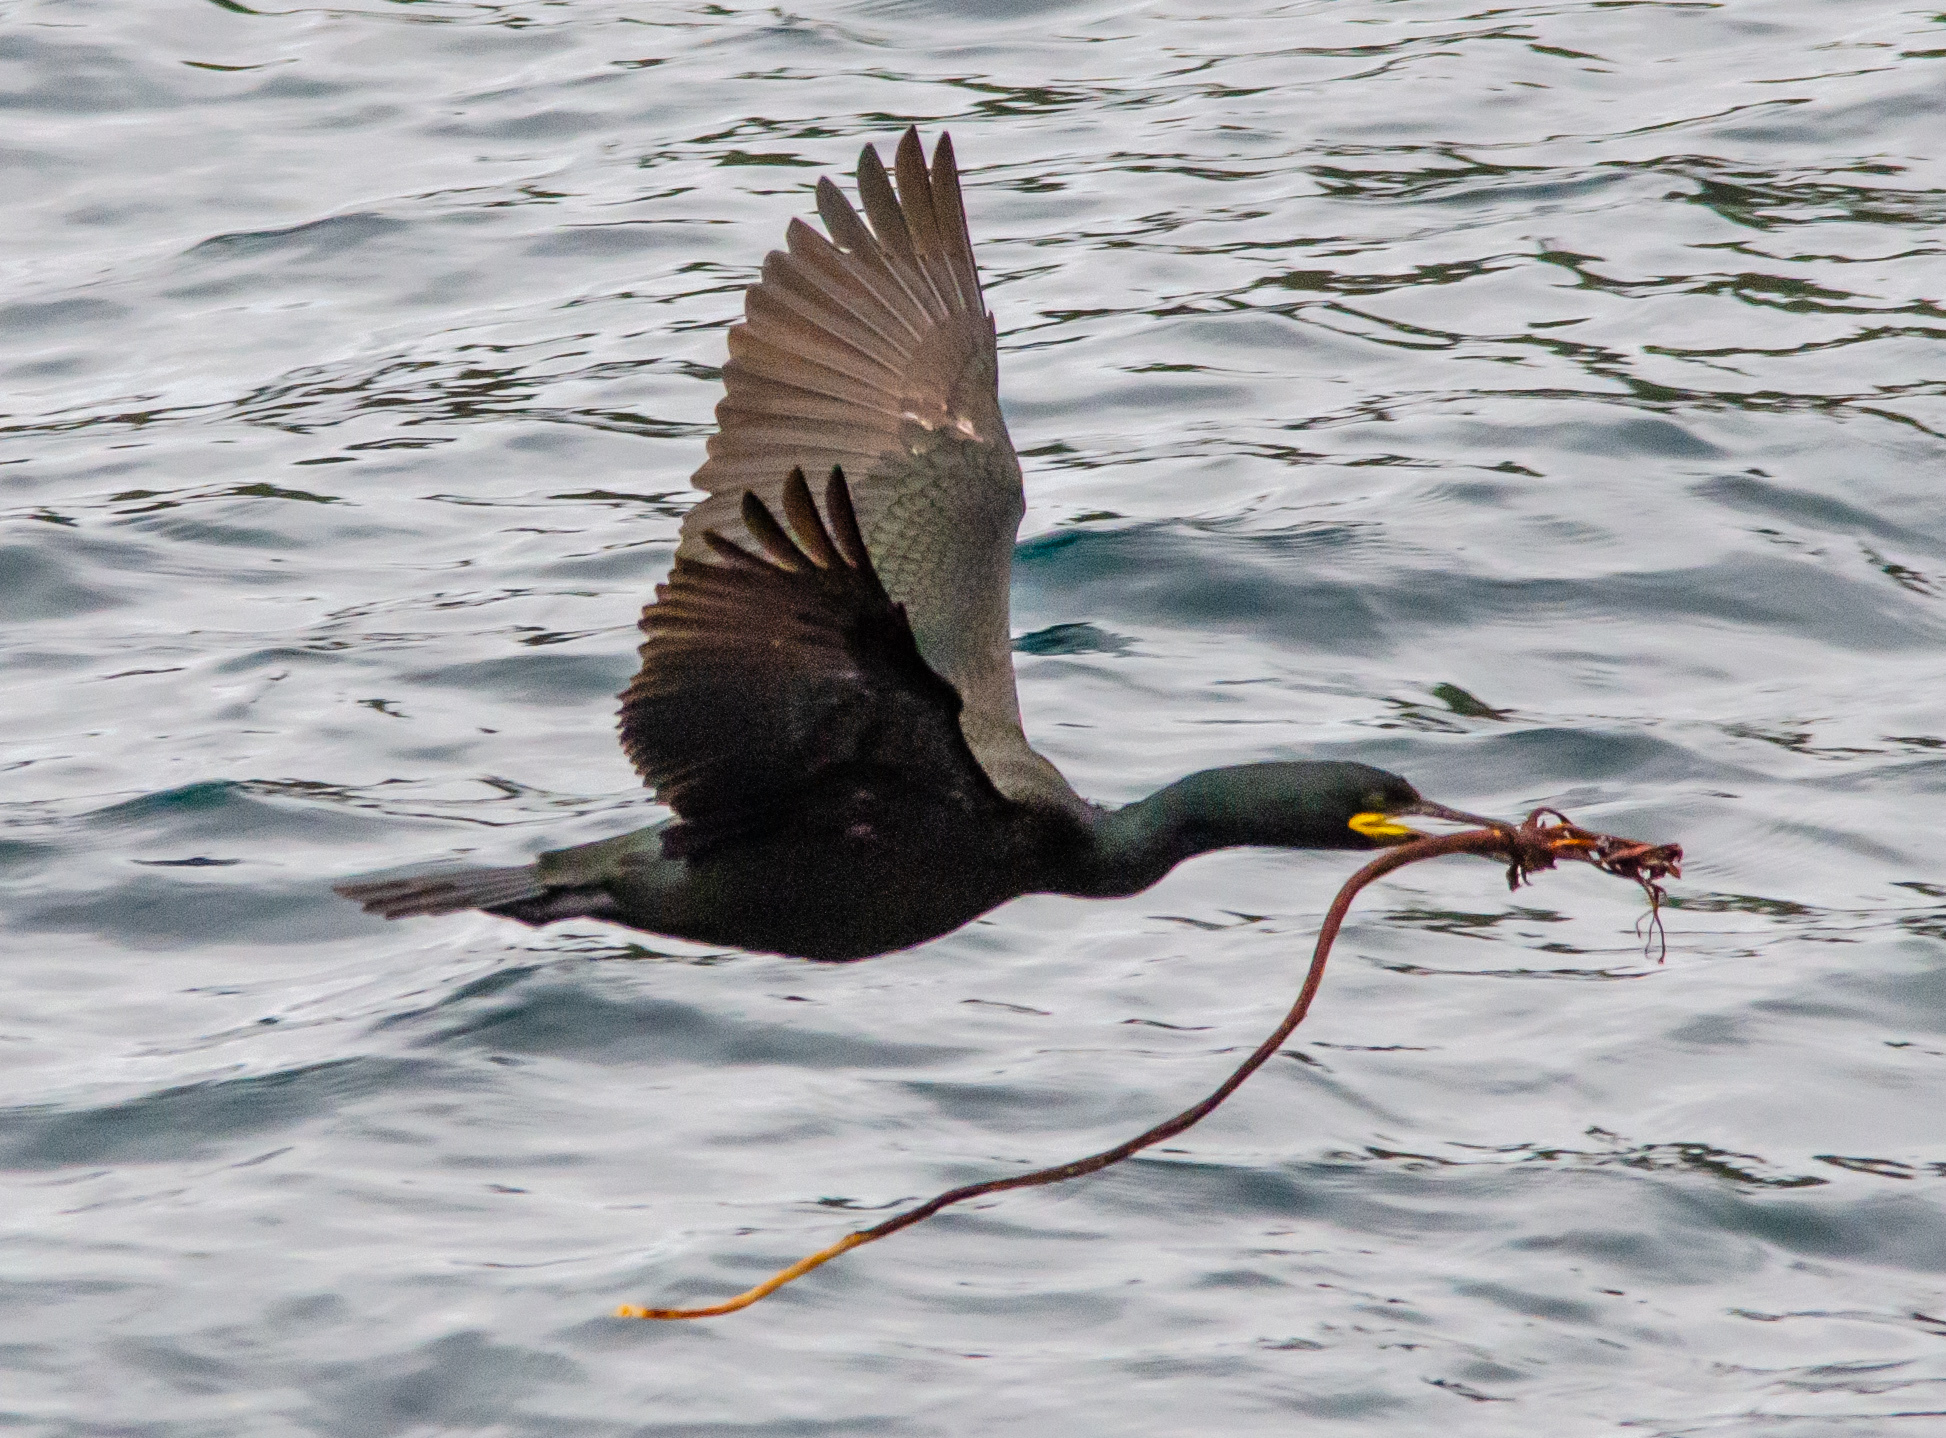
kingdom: Animalia
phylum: Chordata
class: Aves
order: Suliformes
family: Phalacrocoracidae
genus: Phalacrocorax
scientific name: Phalacrocorax aristotelis
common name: European shag
